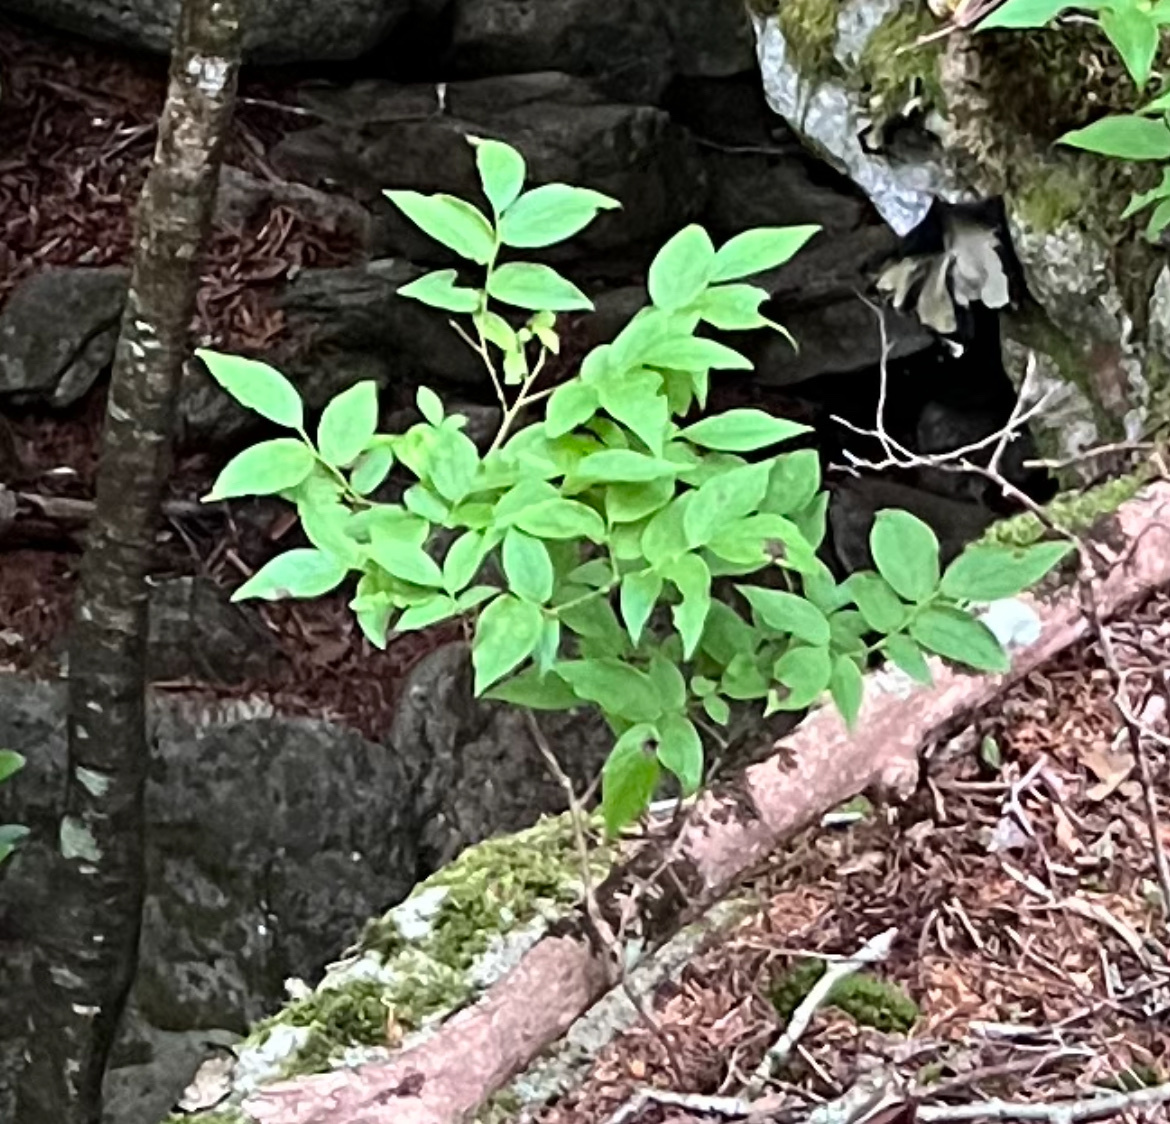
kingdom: Plantae
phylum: Tracheophyta
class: Magnoliopsida
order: Ericales
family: Ericaceae
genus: Vaccinium
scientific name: Vaccinium erythrocarpum
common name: Bearberry
